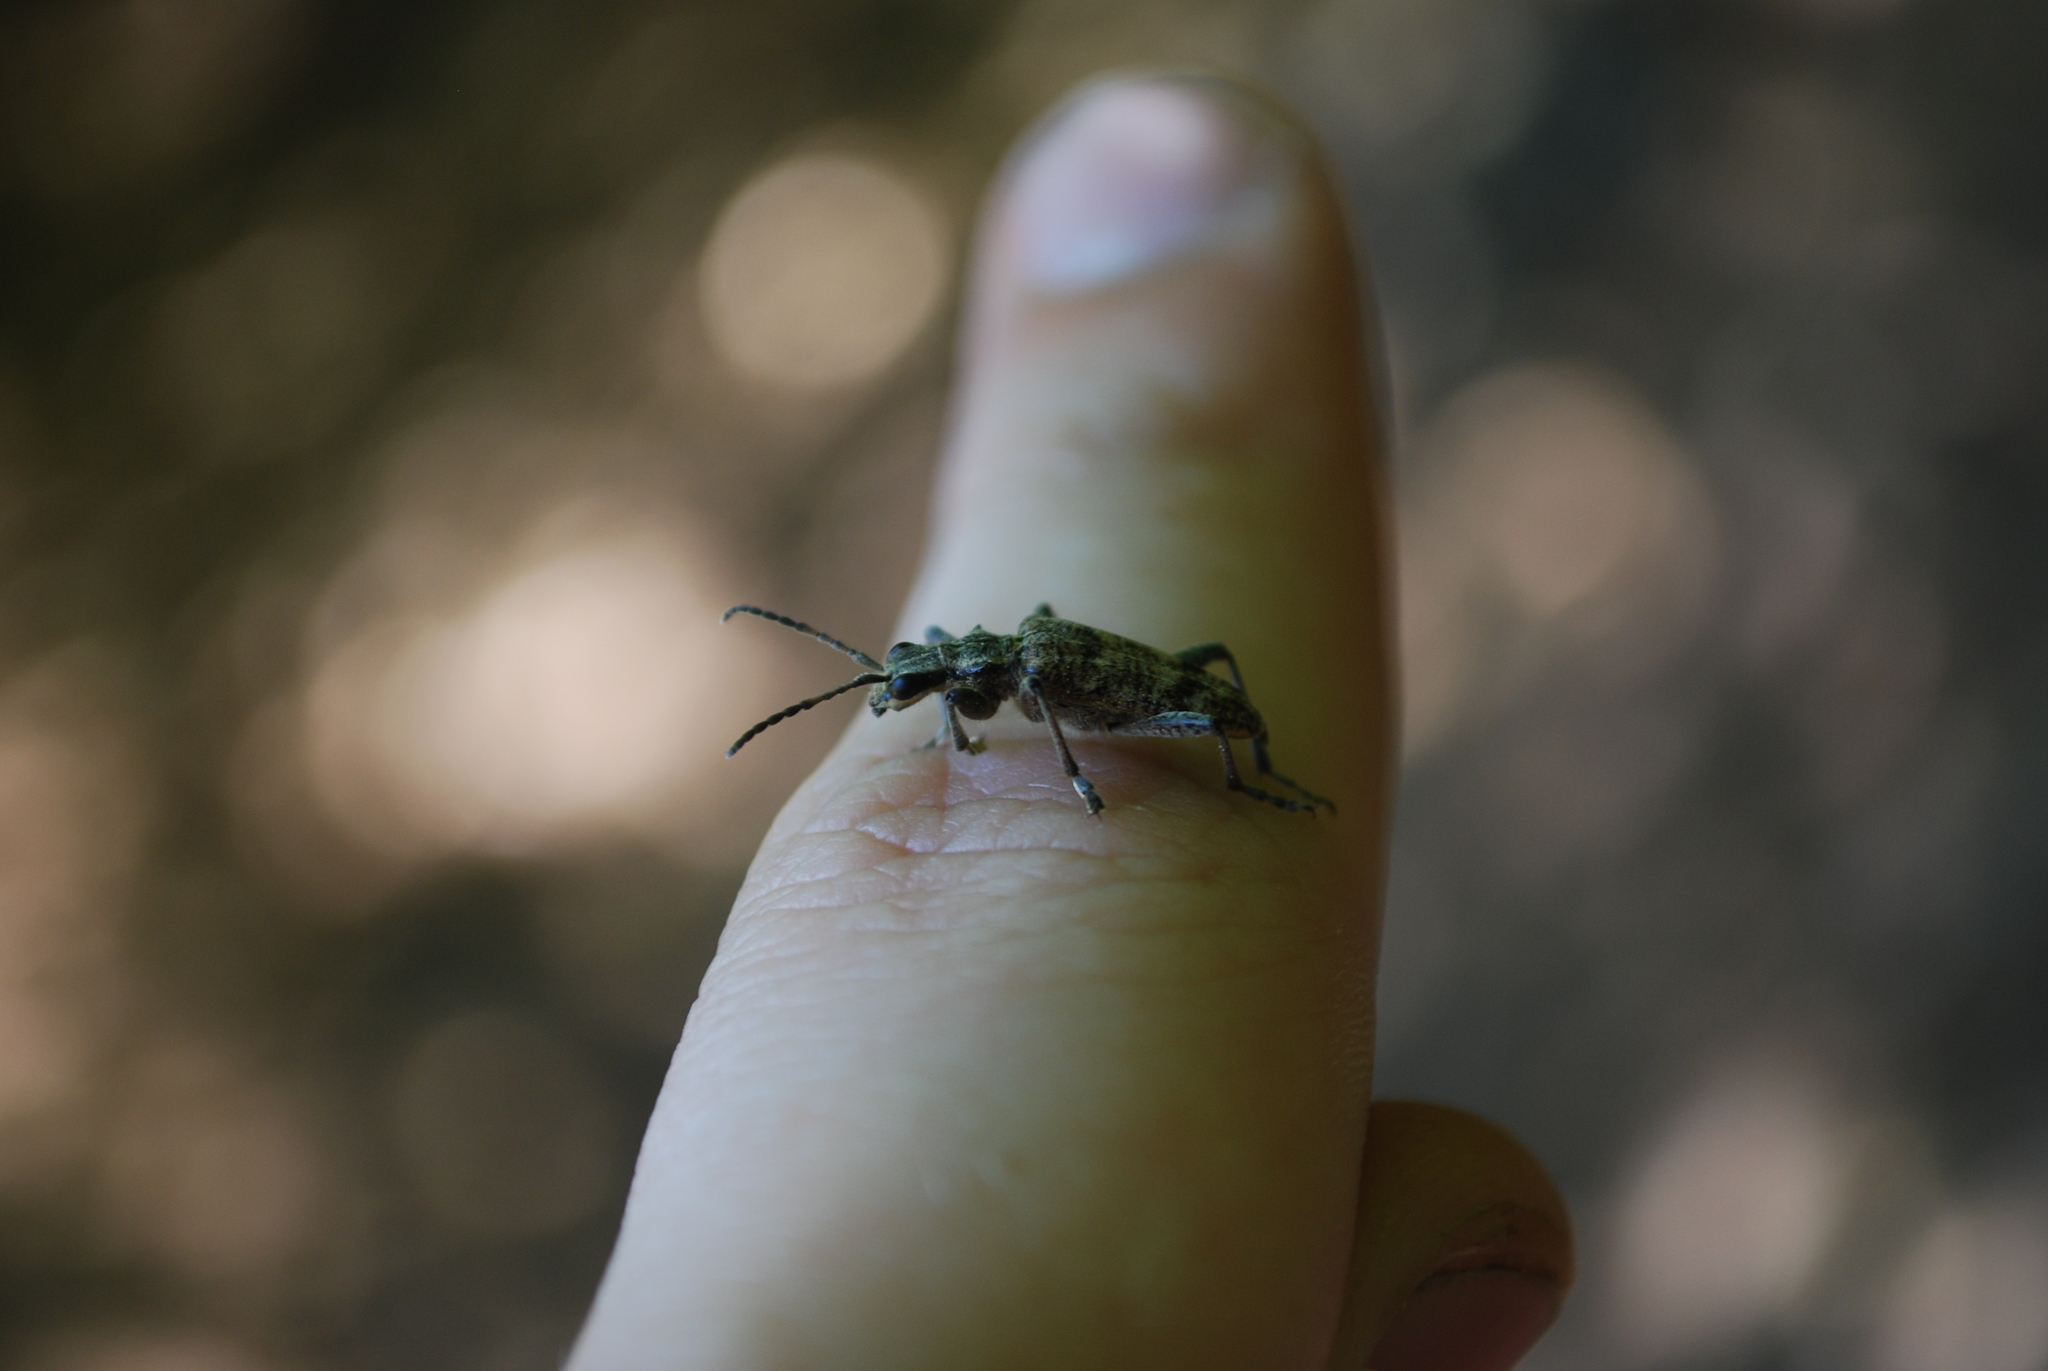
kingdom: Animalia
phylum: Arthropoda
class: Insecta
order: Coleoptera
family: Cerambycidae
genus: Rhagium
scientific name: Rhagium inquisitor
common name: Ribbed pine borer
